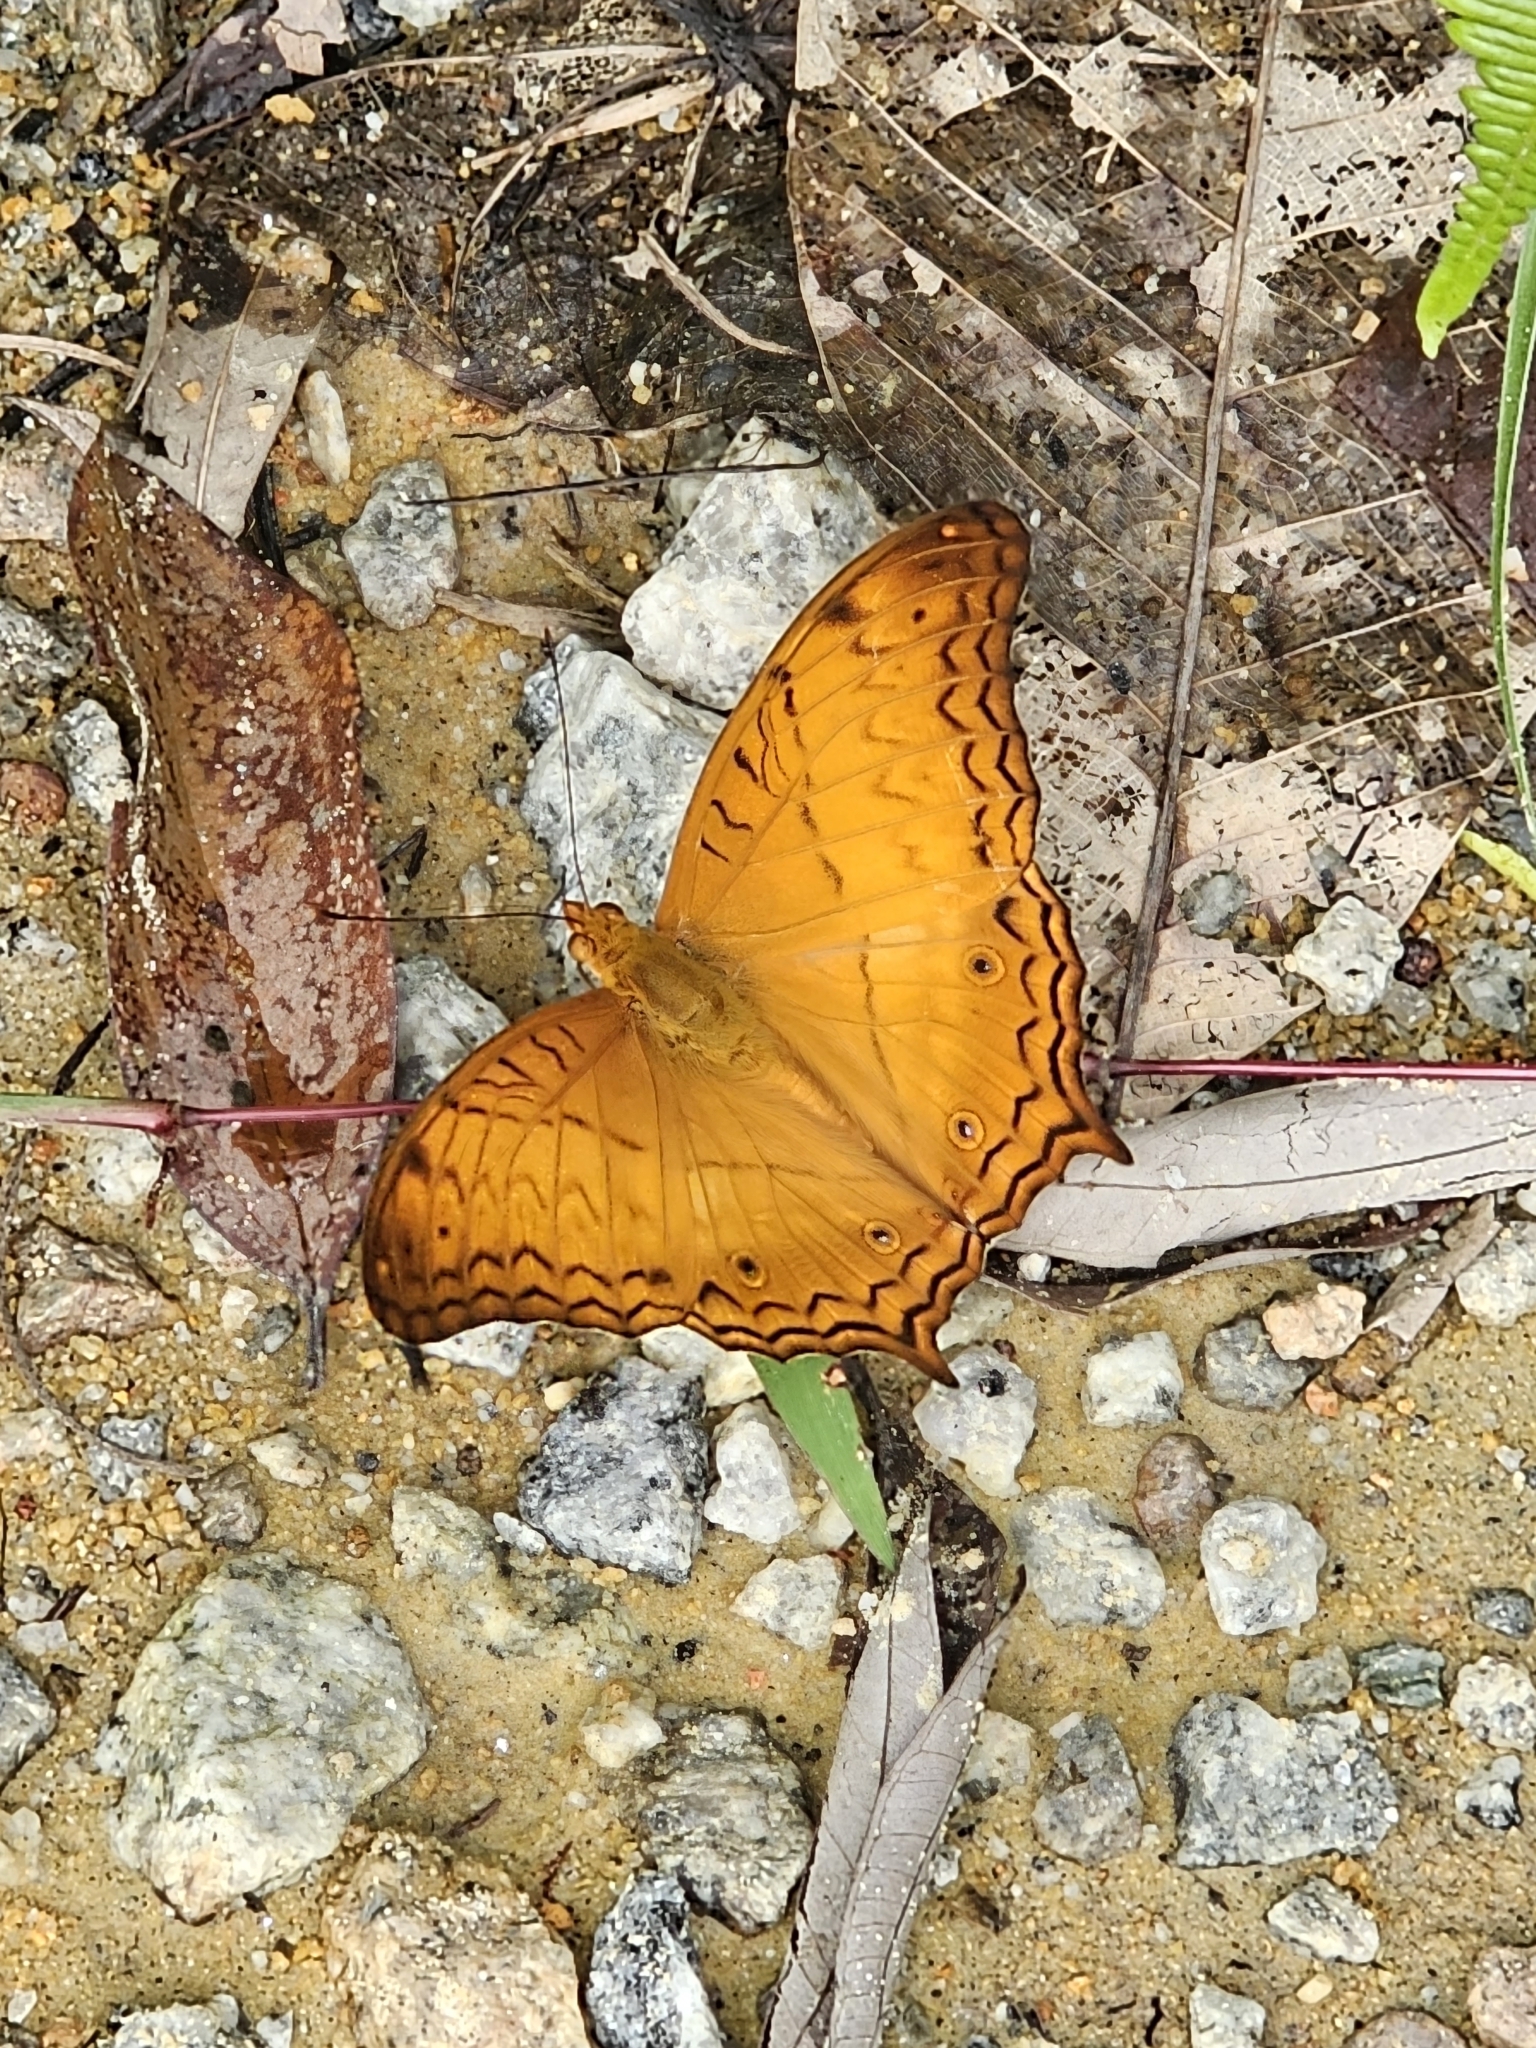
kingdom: Animalia
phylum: Arthropoda
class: Insecta
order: Lepidoptera
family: Nymphalidae
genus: Vindula
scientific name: Vindula deione
